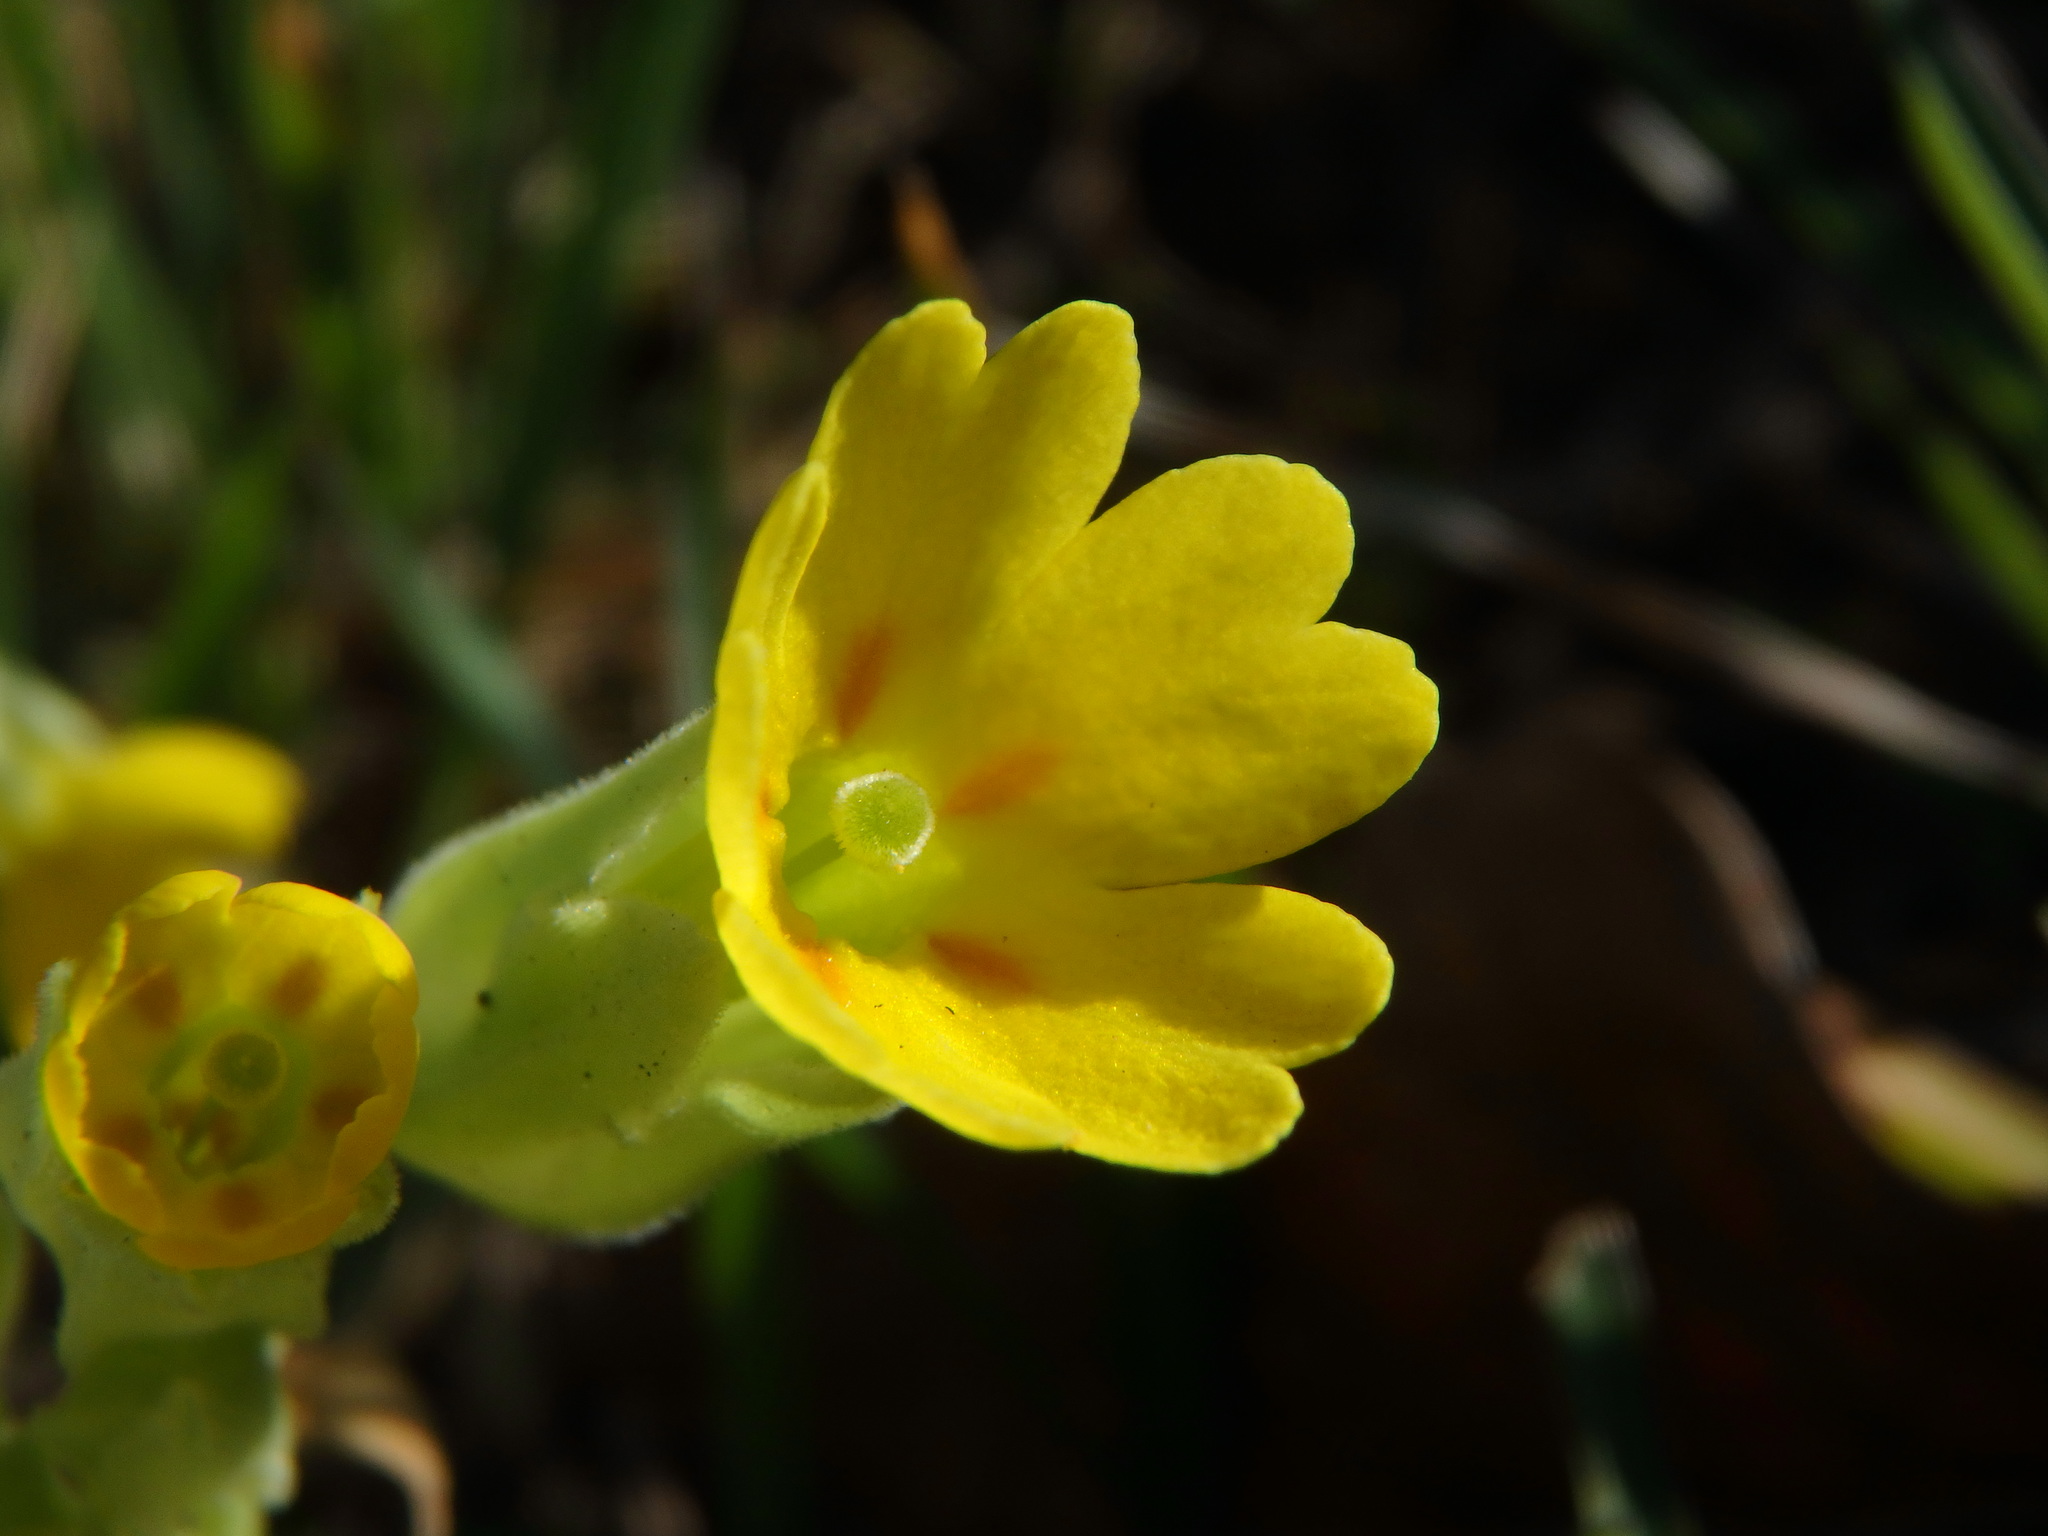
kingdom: Plantae
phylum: Tracheophyta
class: Magnoliopsida
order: Ericales
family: Primulaceae
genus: Primula
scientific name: Primula veris
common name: Cowslip
